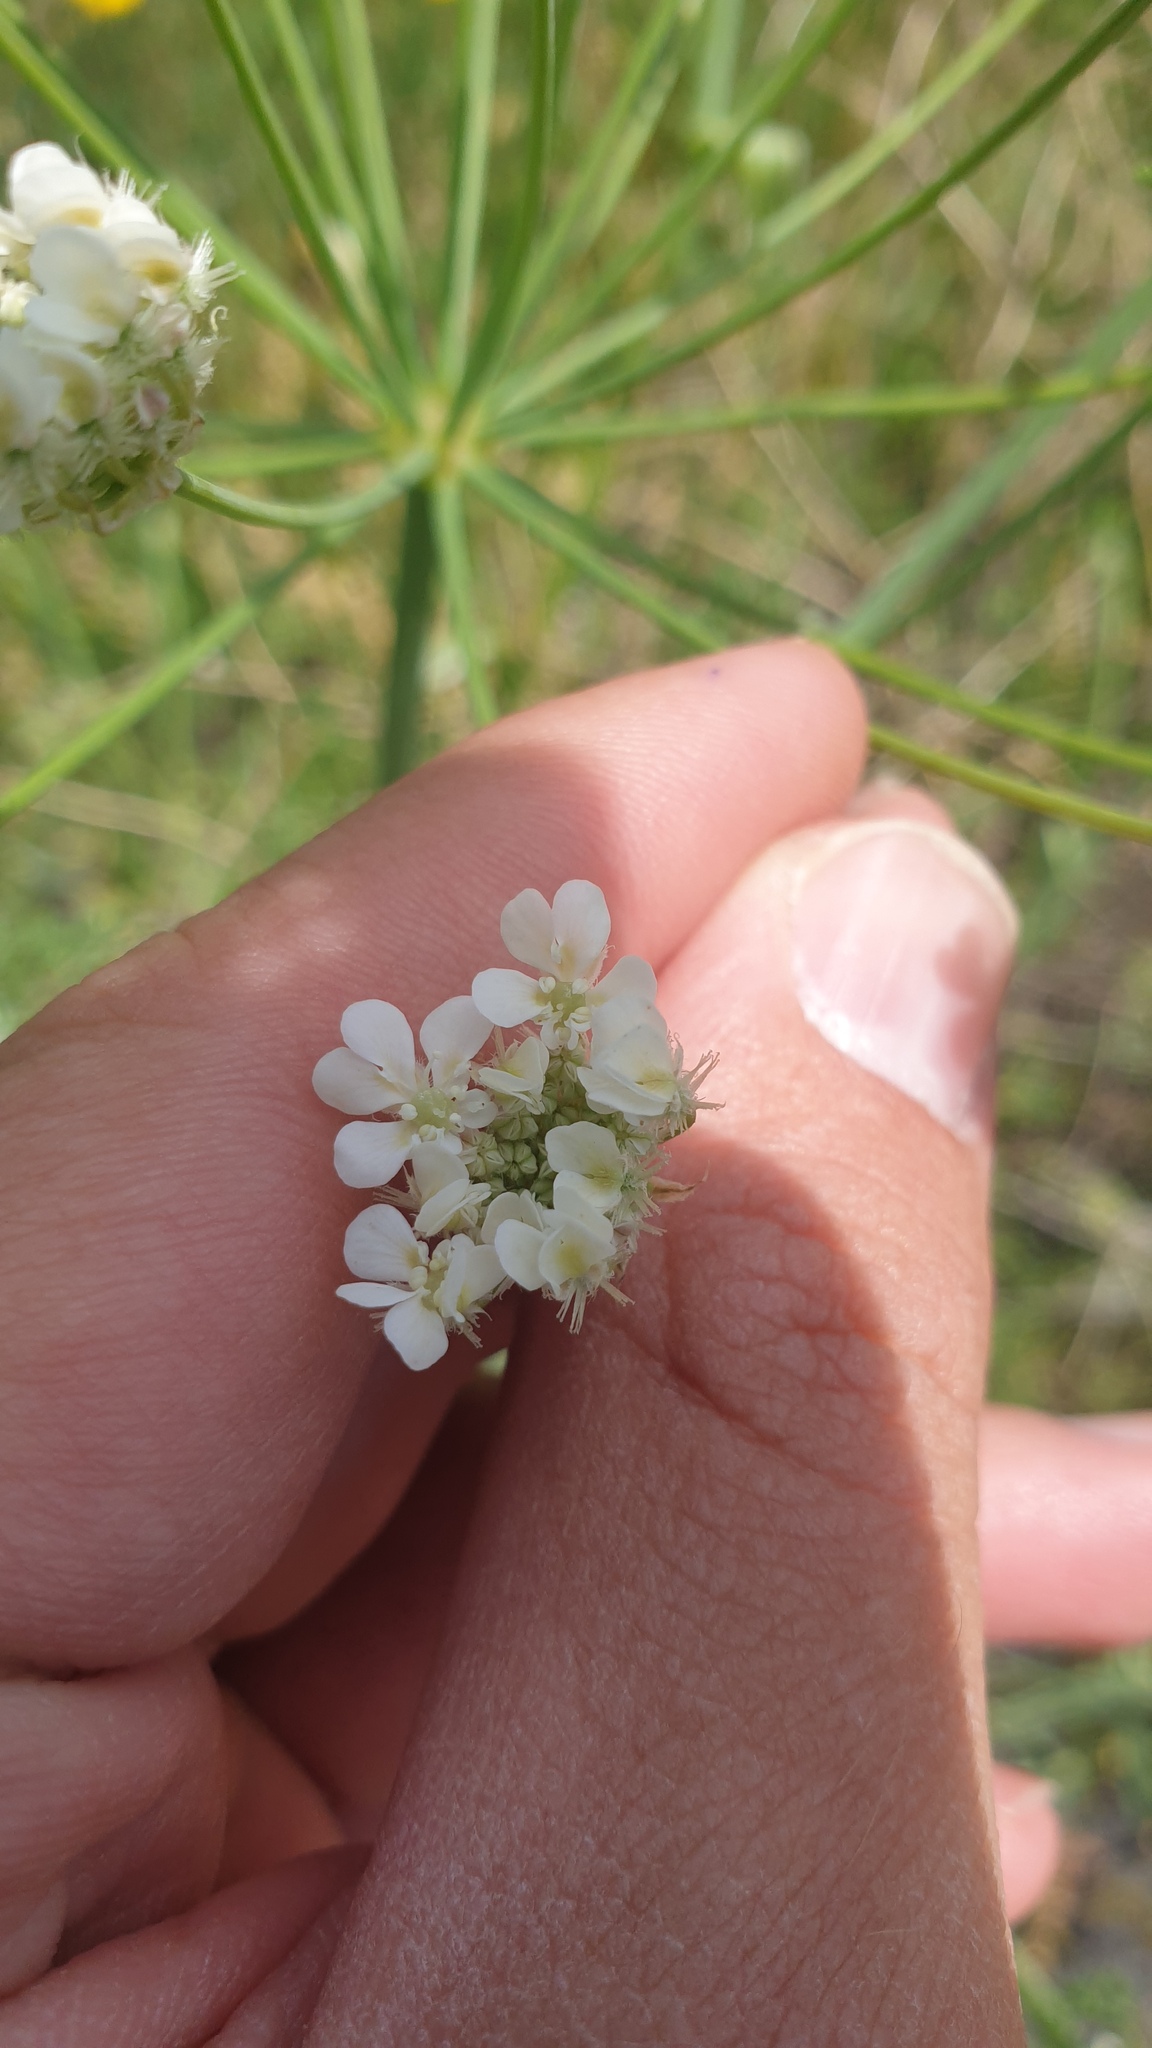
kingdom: Plantae
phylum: Tracheophyta
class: Magnoliopsida
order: Apiales
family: Apiaceae
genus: Ammi
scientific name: Ammi majus
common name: Bullwort
